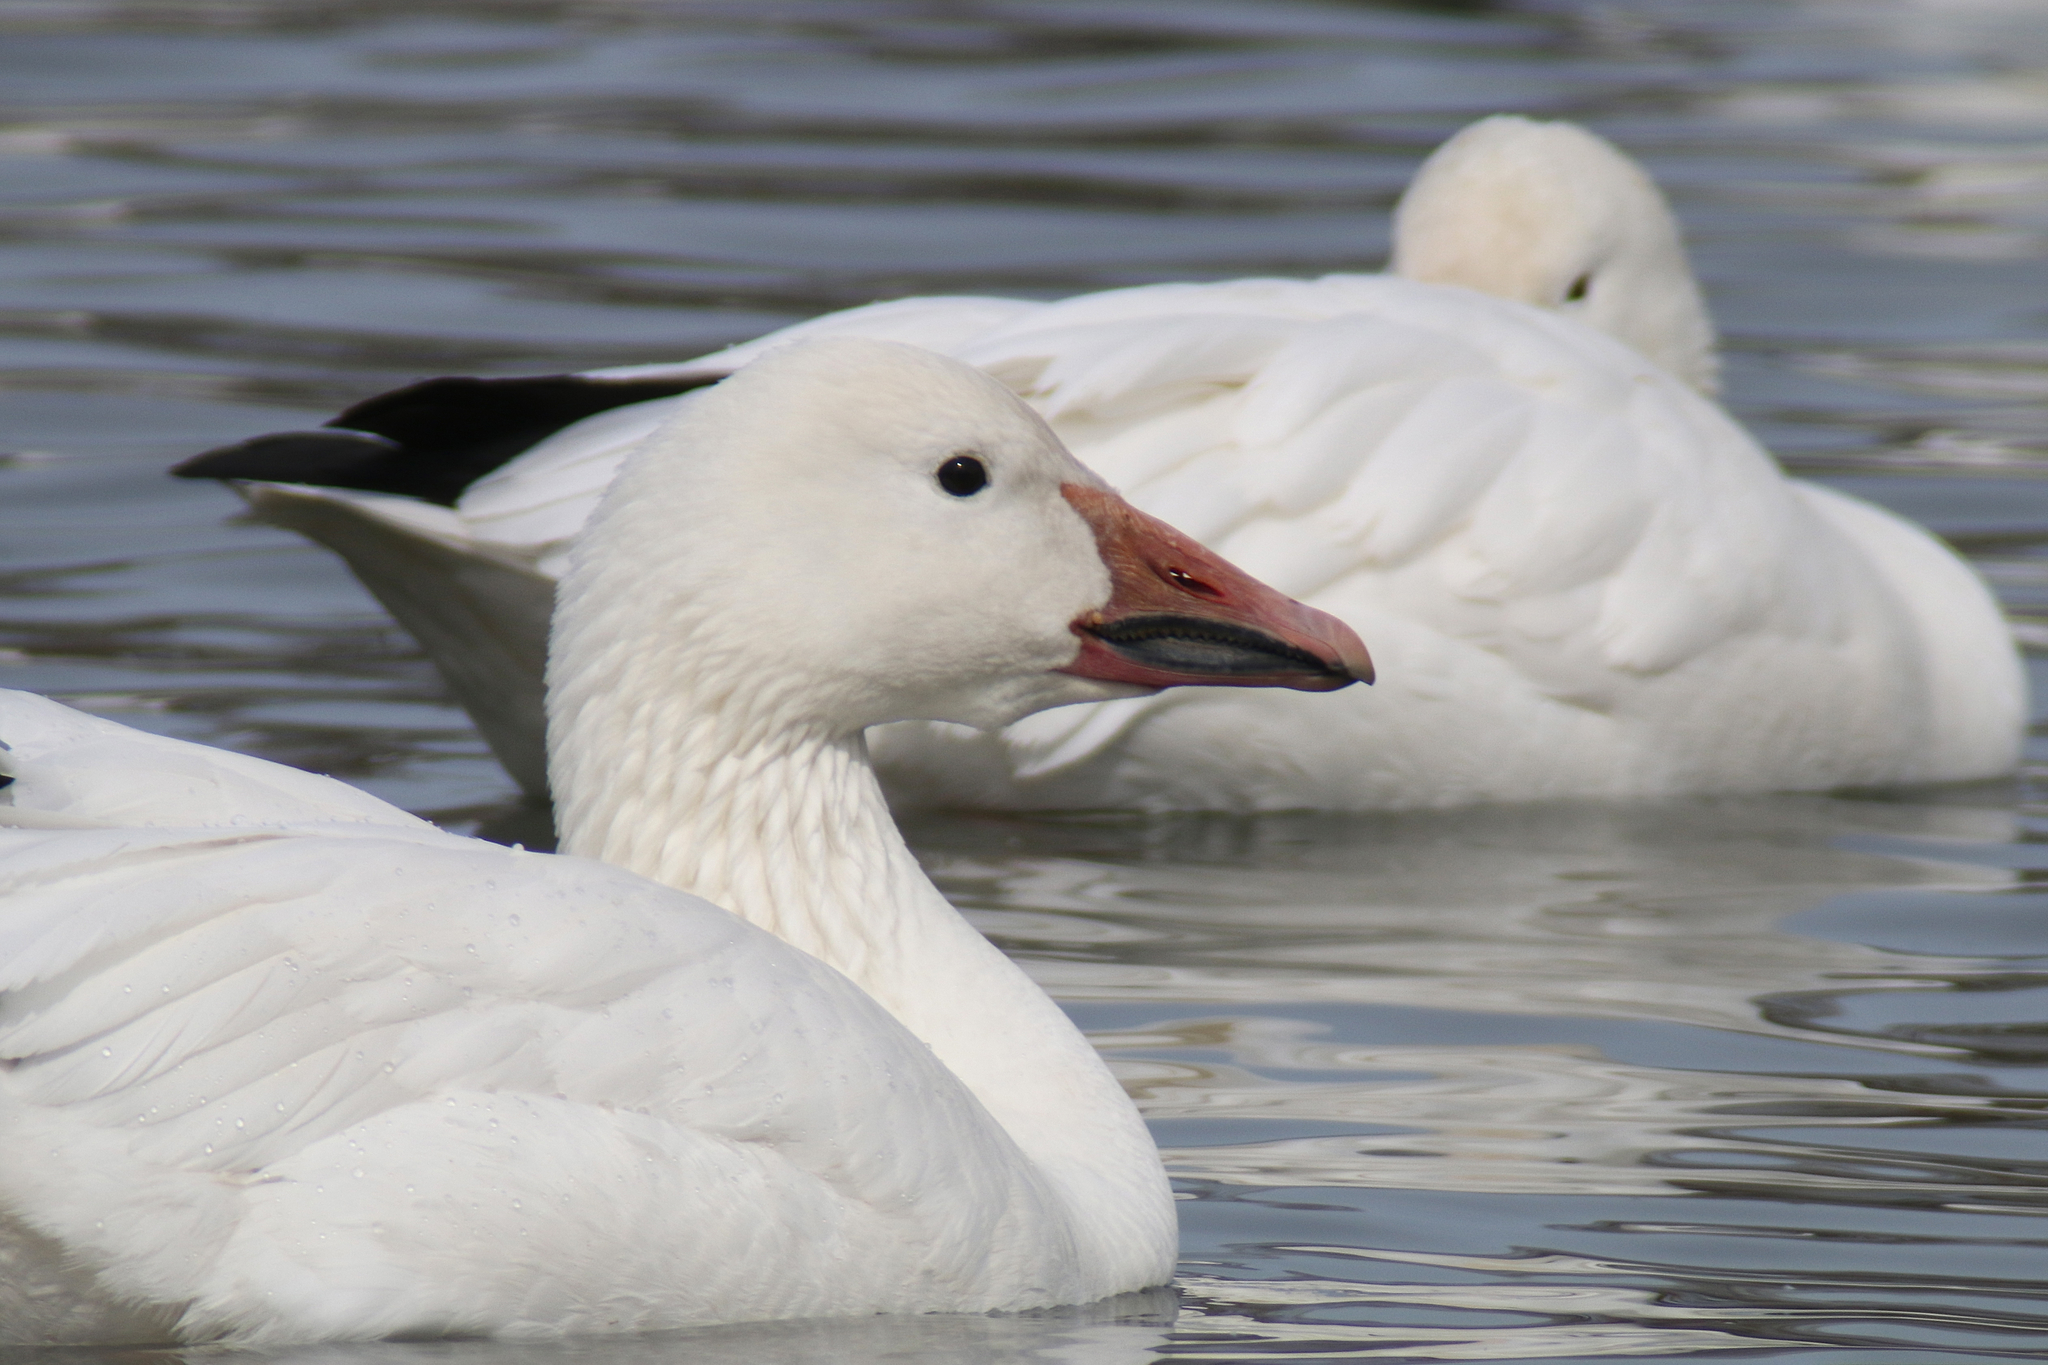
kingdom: Animalia
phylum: Chordata
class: Aves
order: Anseriformes
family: Anatidae
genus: Anser
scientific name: Anser caerulescens
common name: Snow goose
